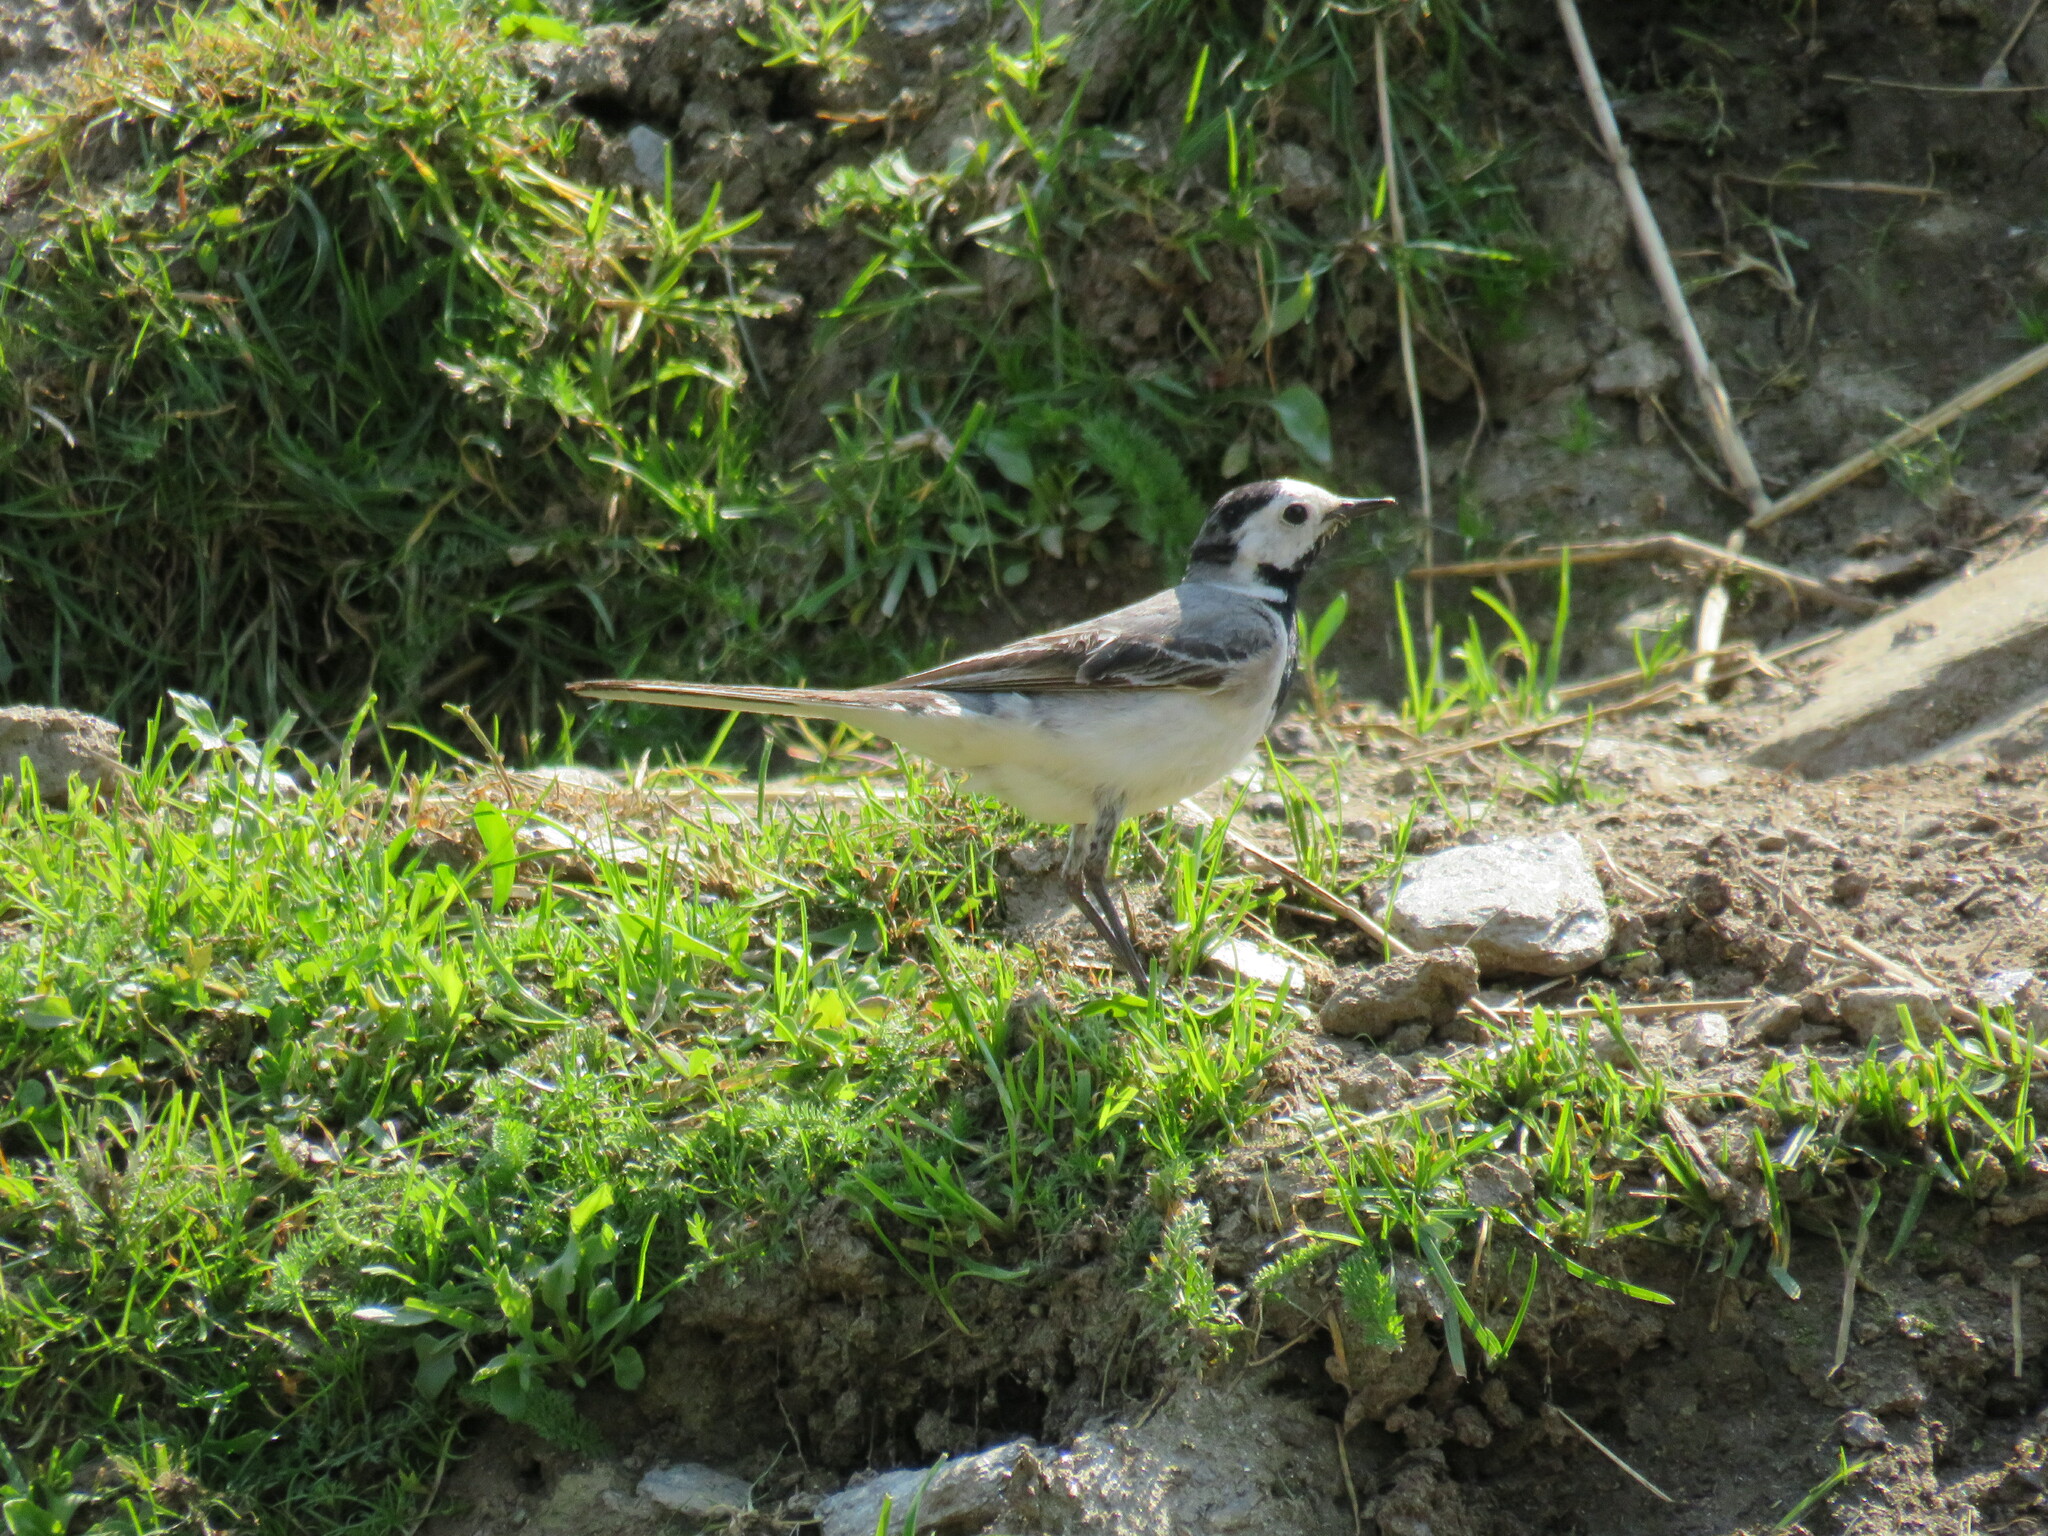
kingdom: Animalia
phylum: Chordata
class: Aves
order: Passeriformes
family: Motacillidae
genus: Motacilla
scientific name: Motacilla alba
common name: White wagtail
